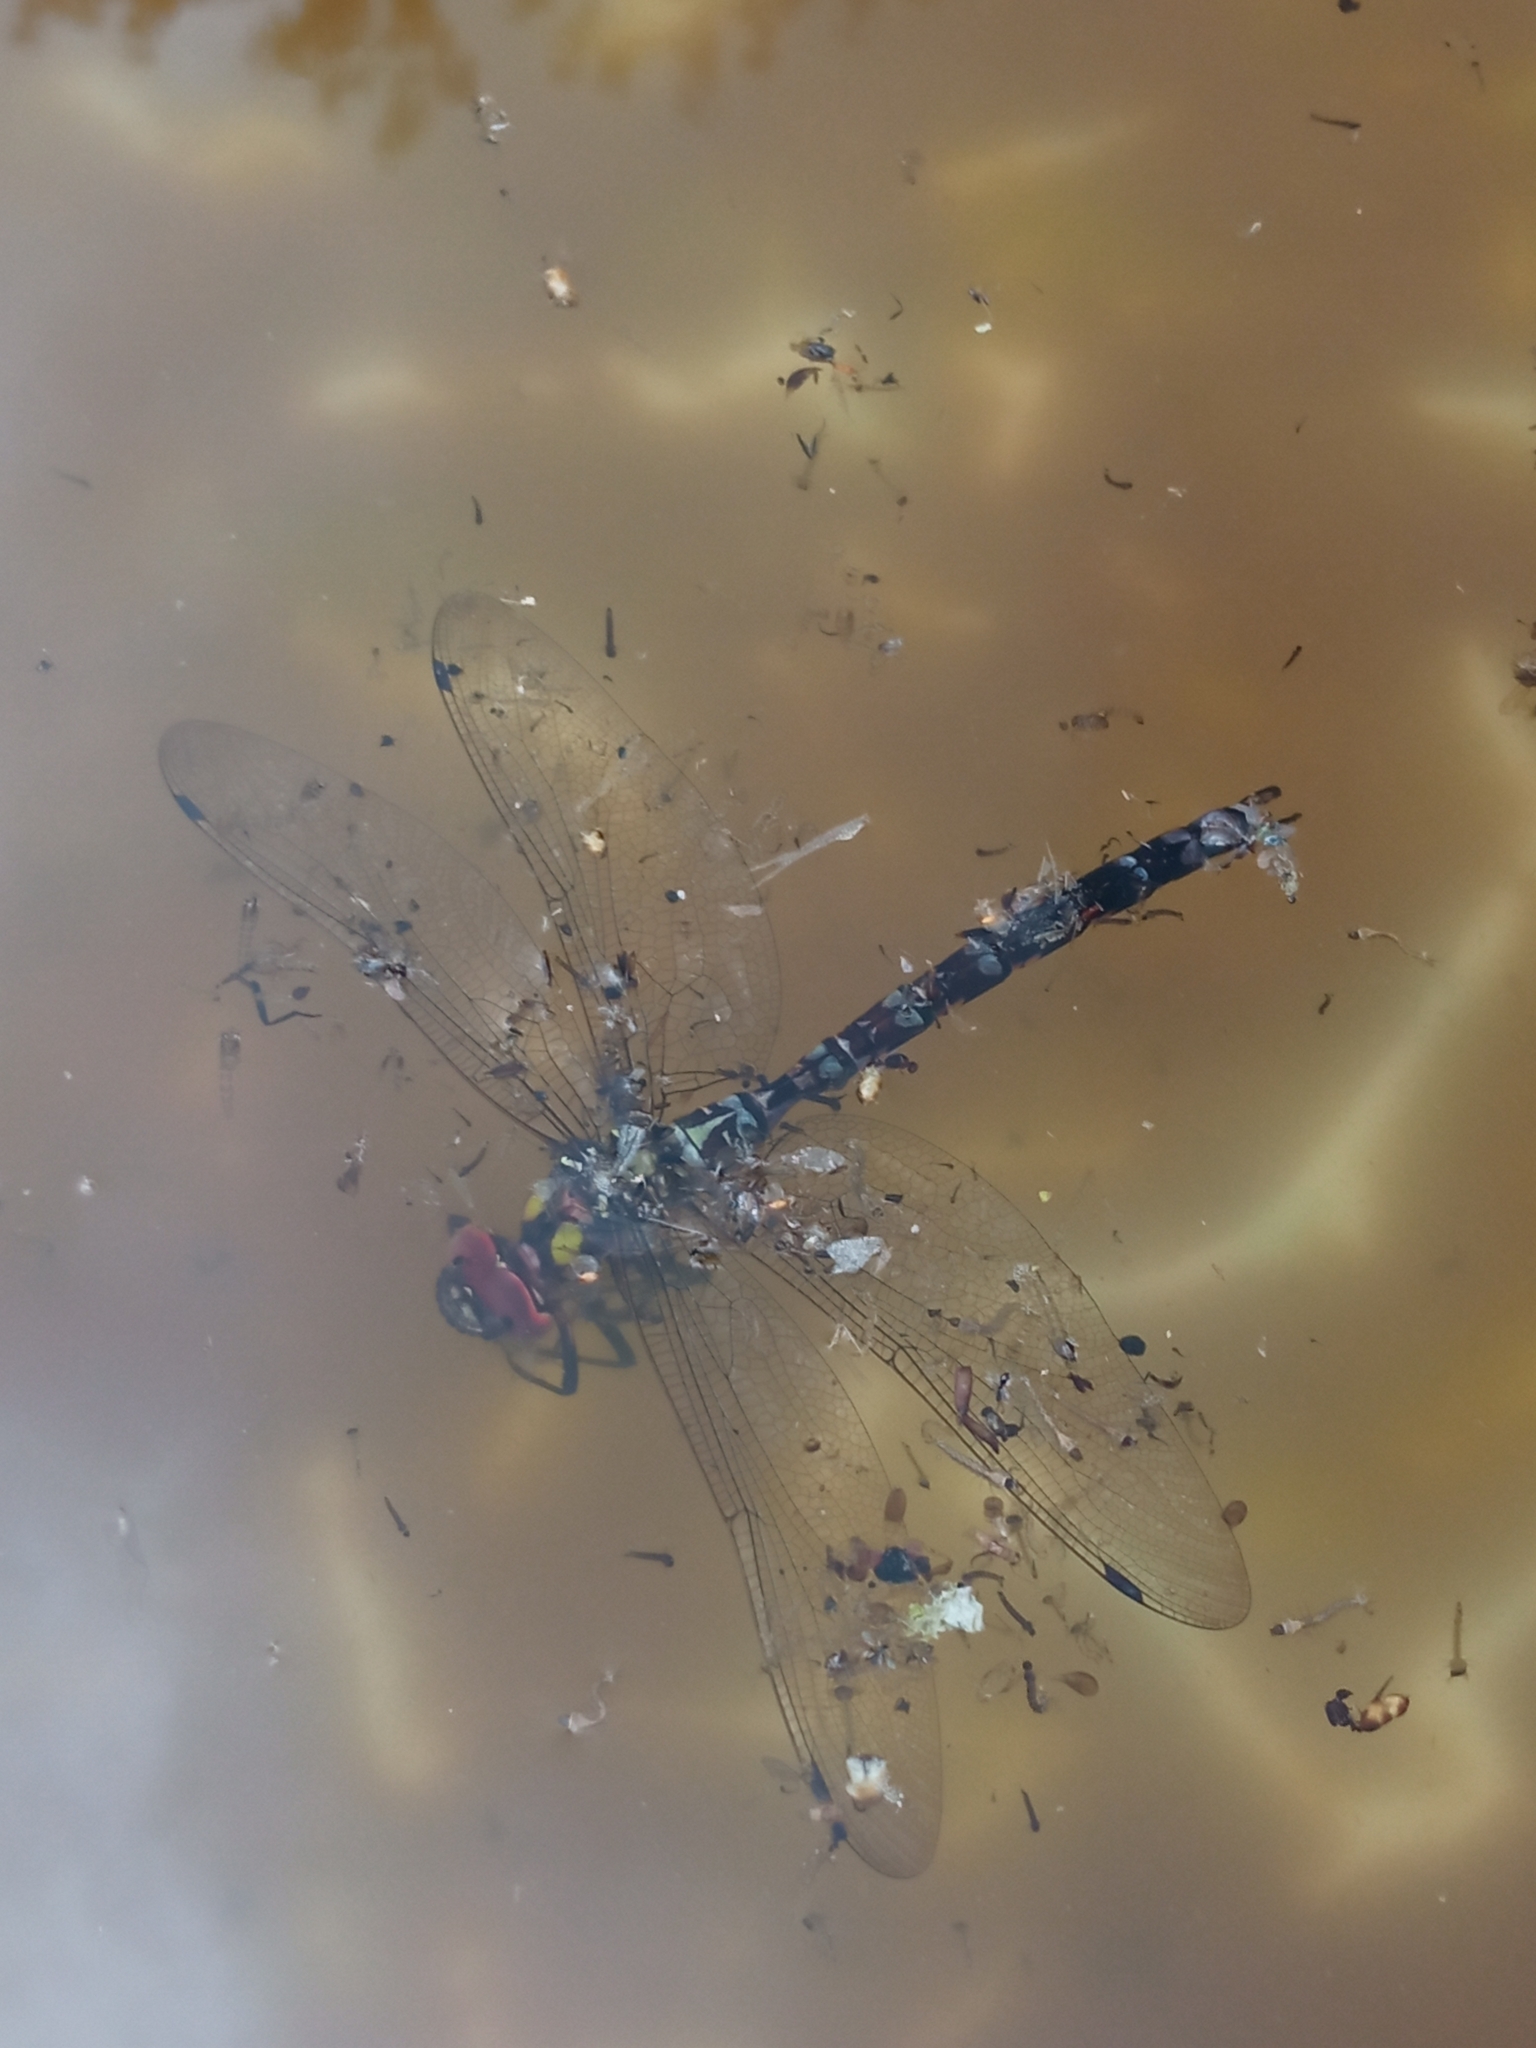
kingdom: Animalia
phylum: Arthropoda
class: Insecta
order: Odonata
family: Aeshnidae
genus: Aeshna
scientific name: Aeshna cyanea
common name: Southern hawker
